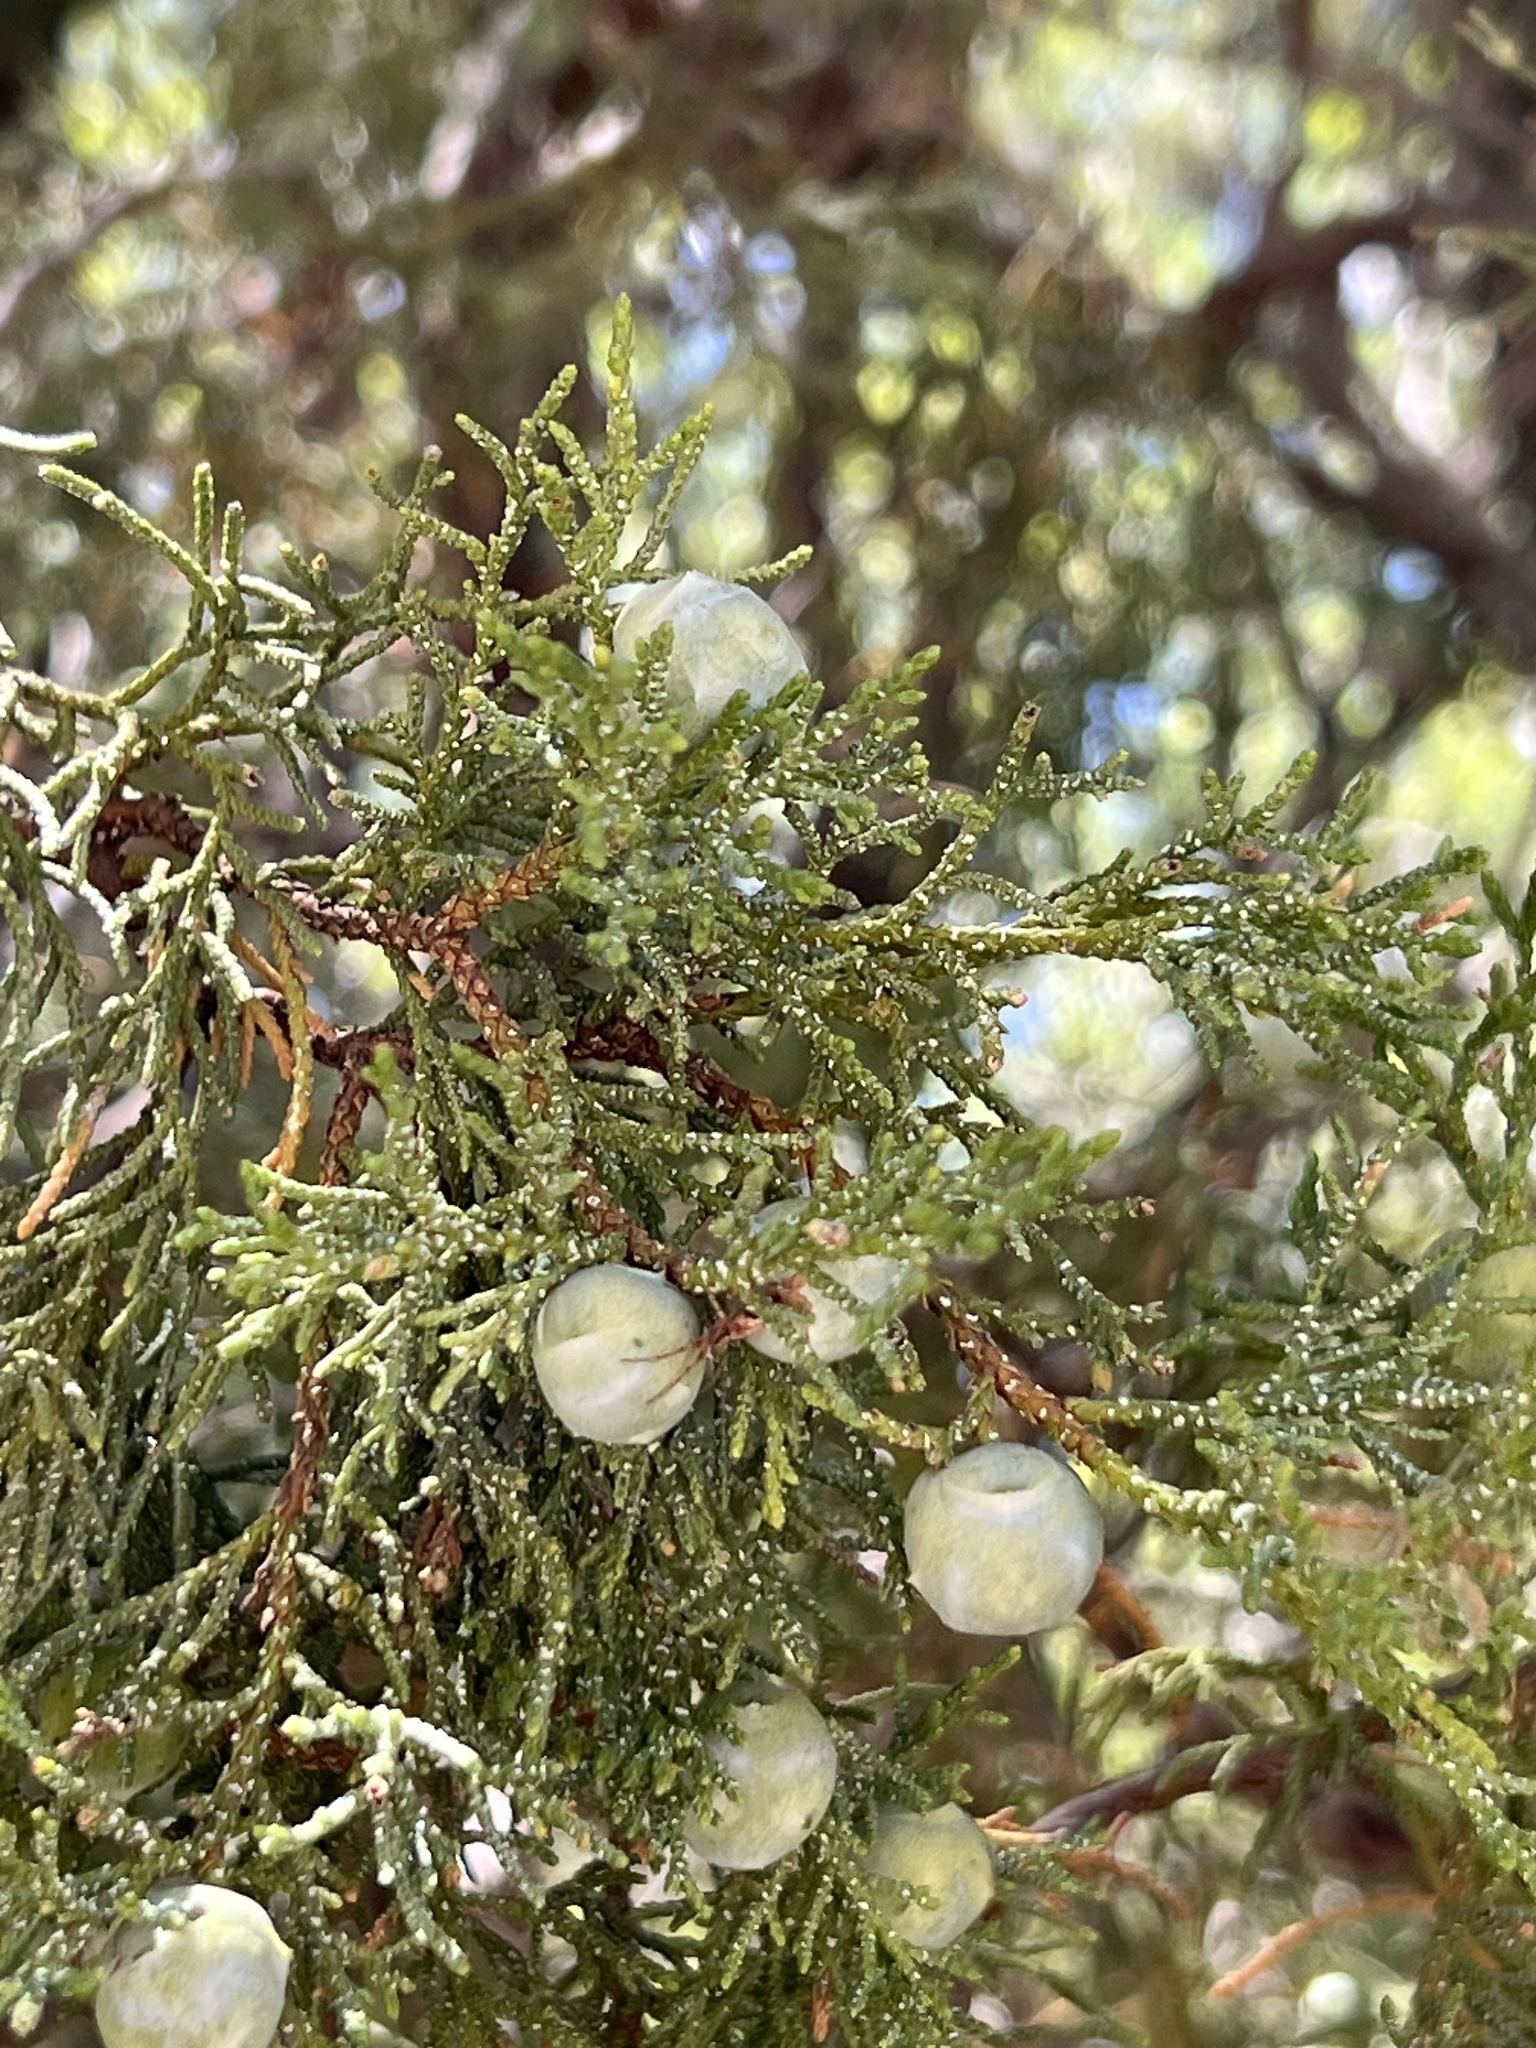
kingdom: Plantae
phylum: Tracheophyta
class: Pinopsida
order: Pinales
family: Cupressaceae
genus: Juniperus
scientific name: Juniperus deppeana
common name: Alligator juniper
